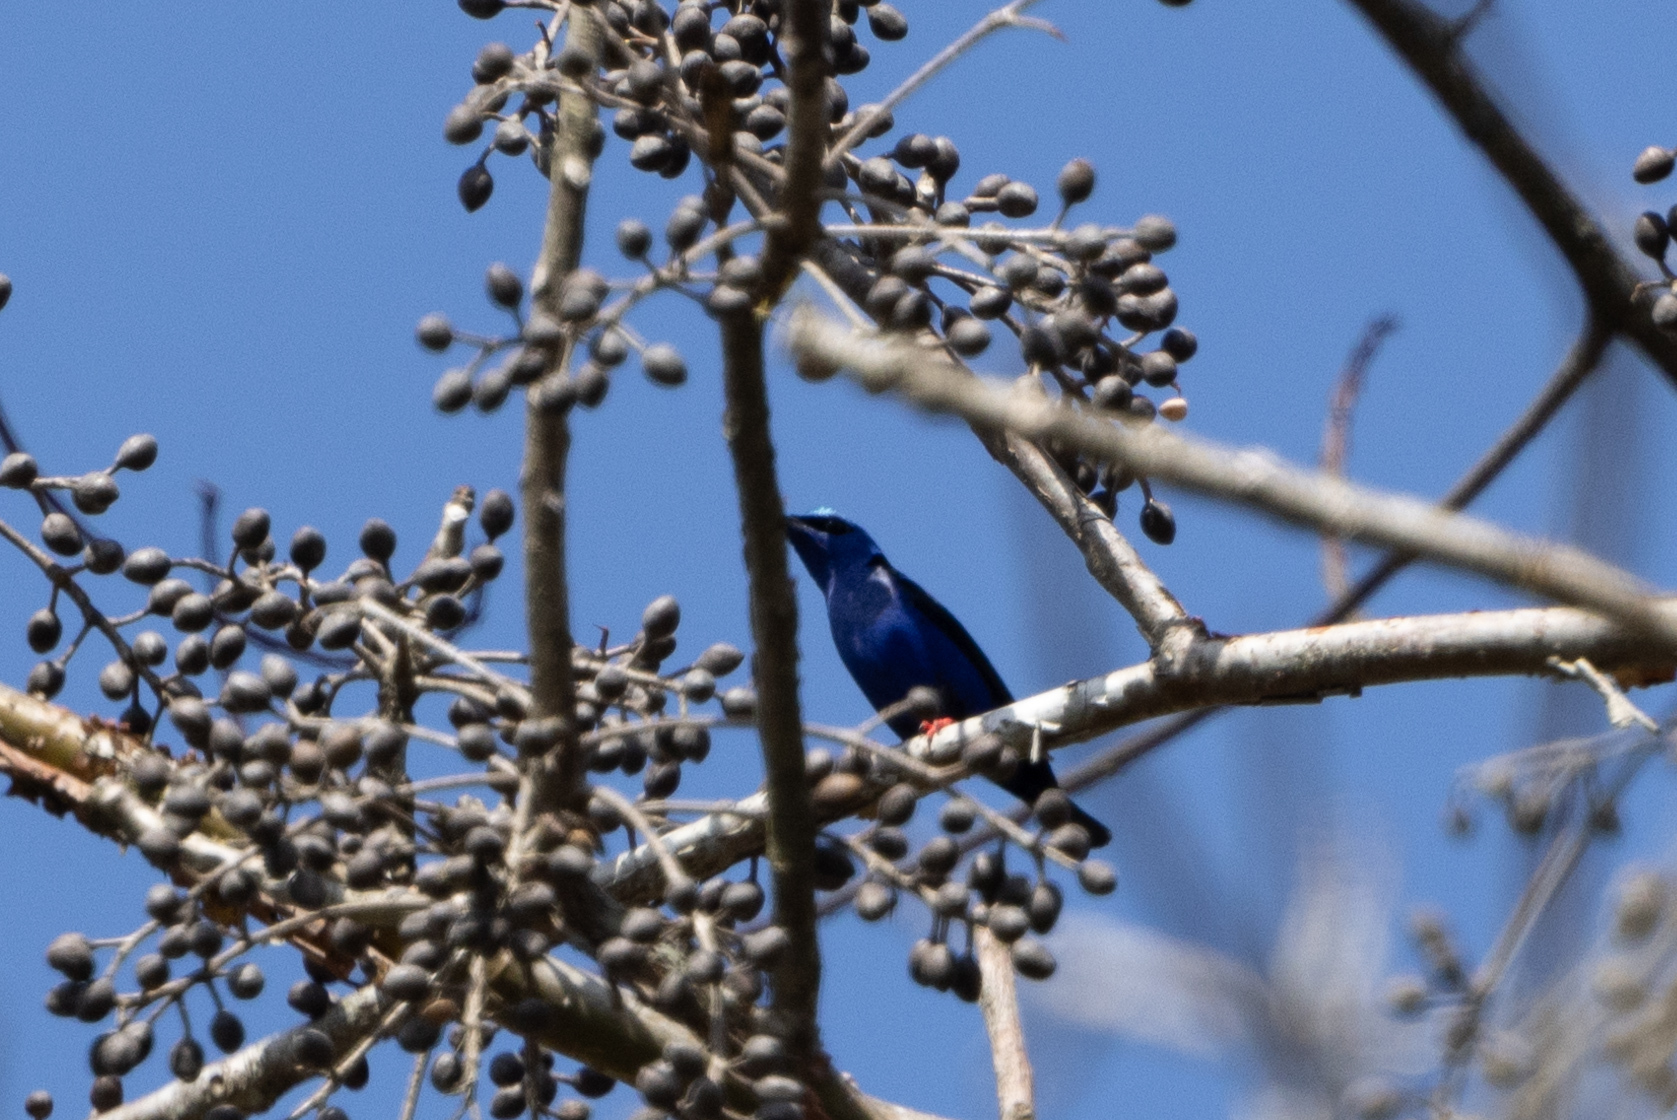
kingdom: Animalia
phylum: Chordata
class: Aves
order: Passeriformes
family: Thraupidae
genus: Cyanerpes
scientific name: Cyanerpes cyaneus
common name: Red-legged honeycreeper
